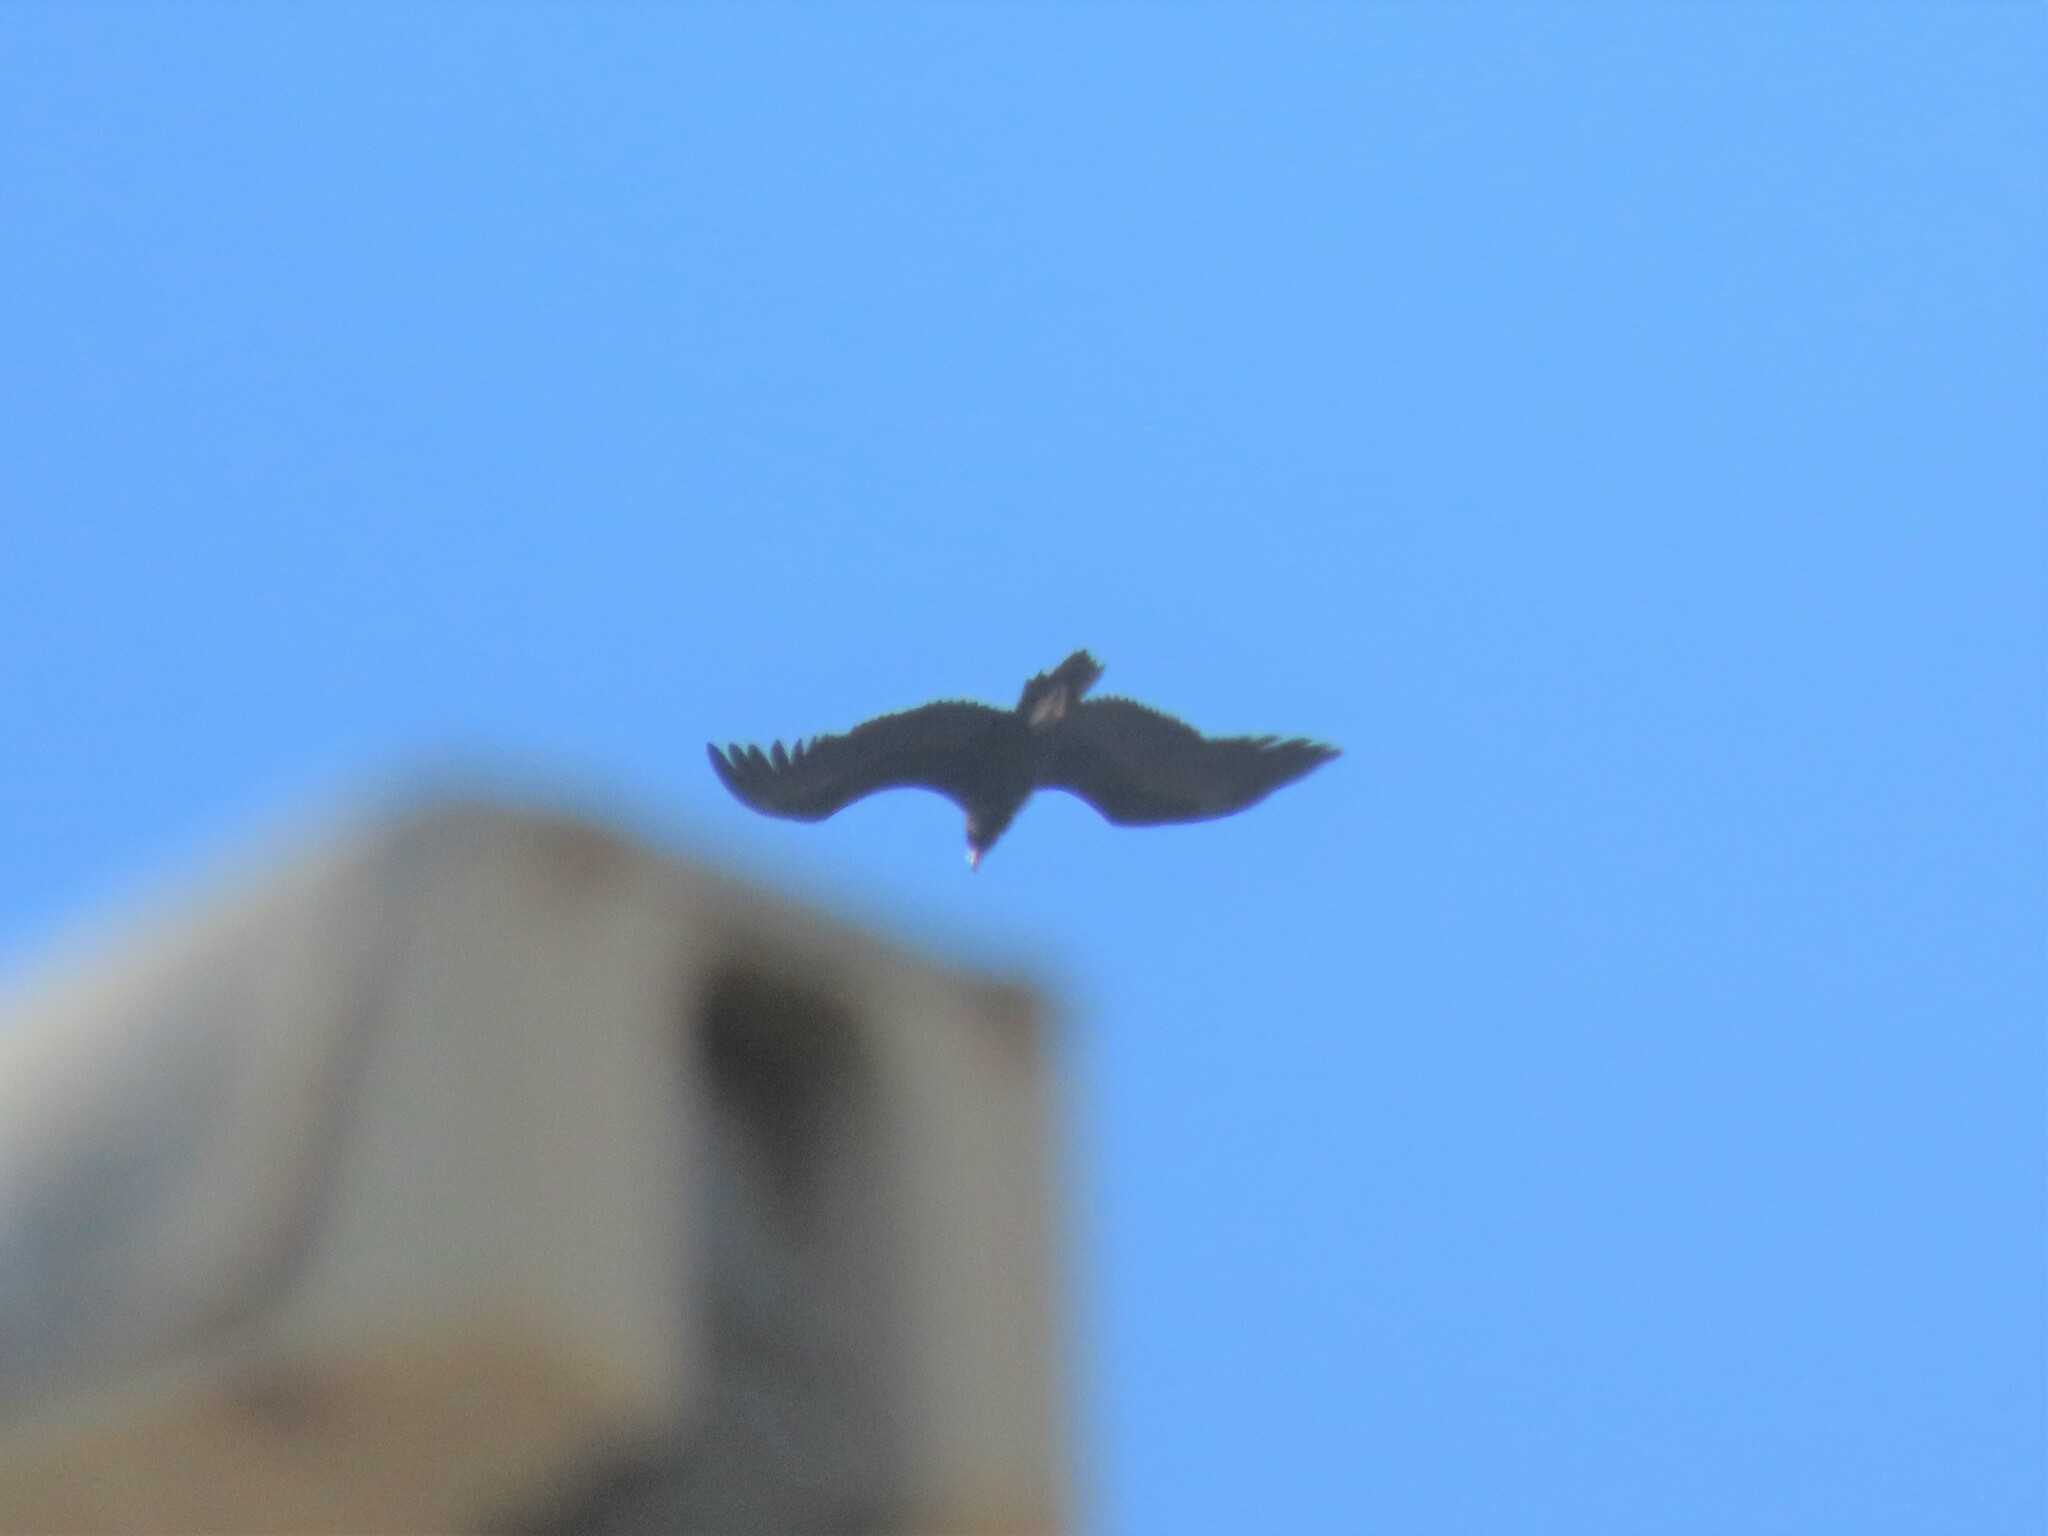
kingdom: Animalia
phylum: Chordata
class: Aves
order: Accipitriformes
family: Accipitridae
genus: Aegypius
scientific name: Aegypius monachus
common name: Cinereous vulture
